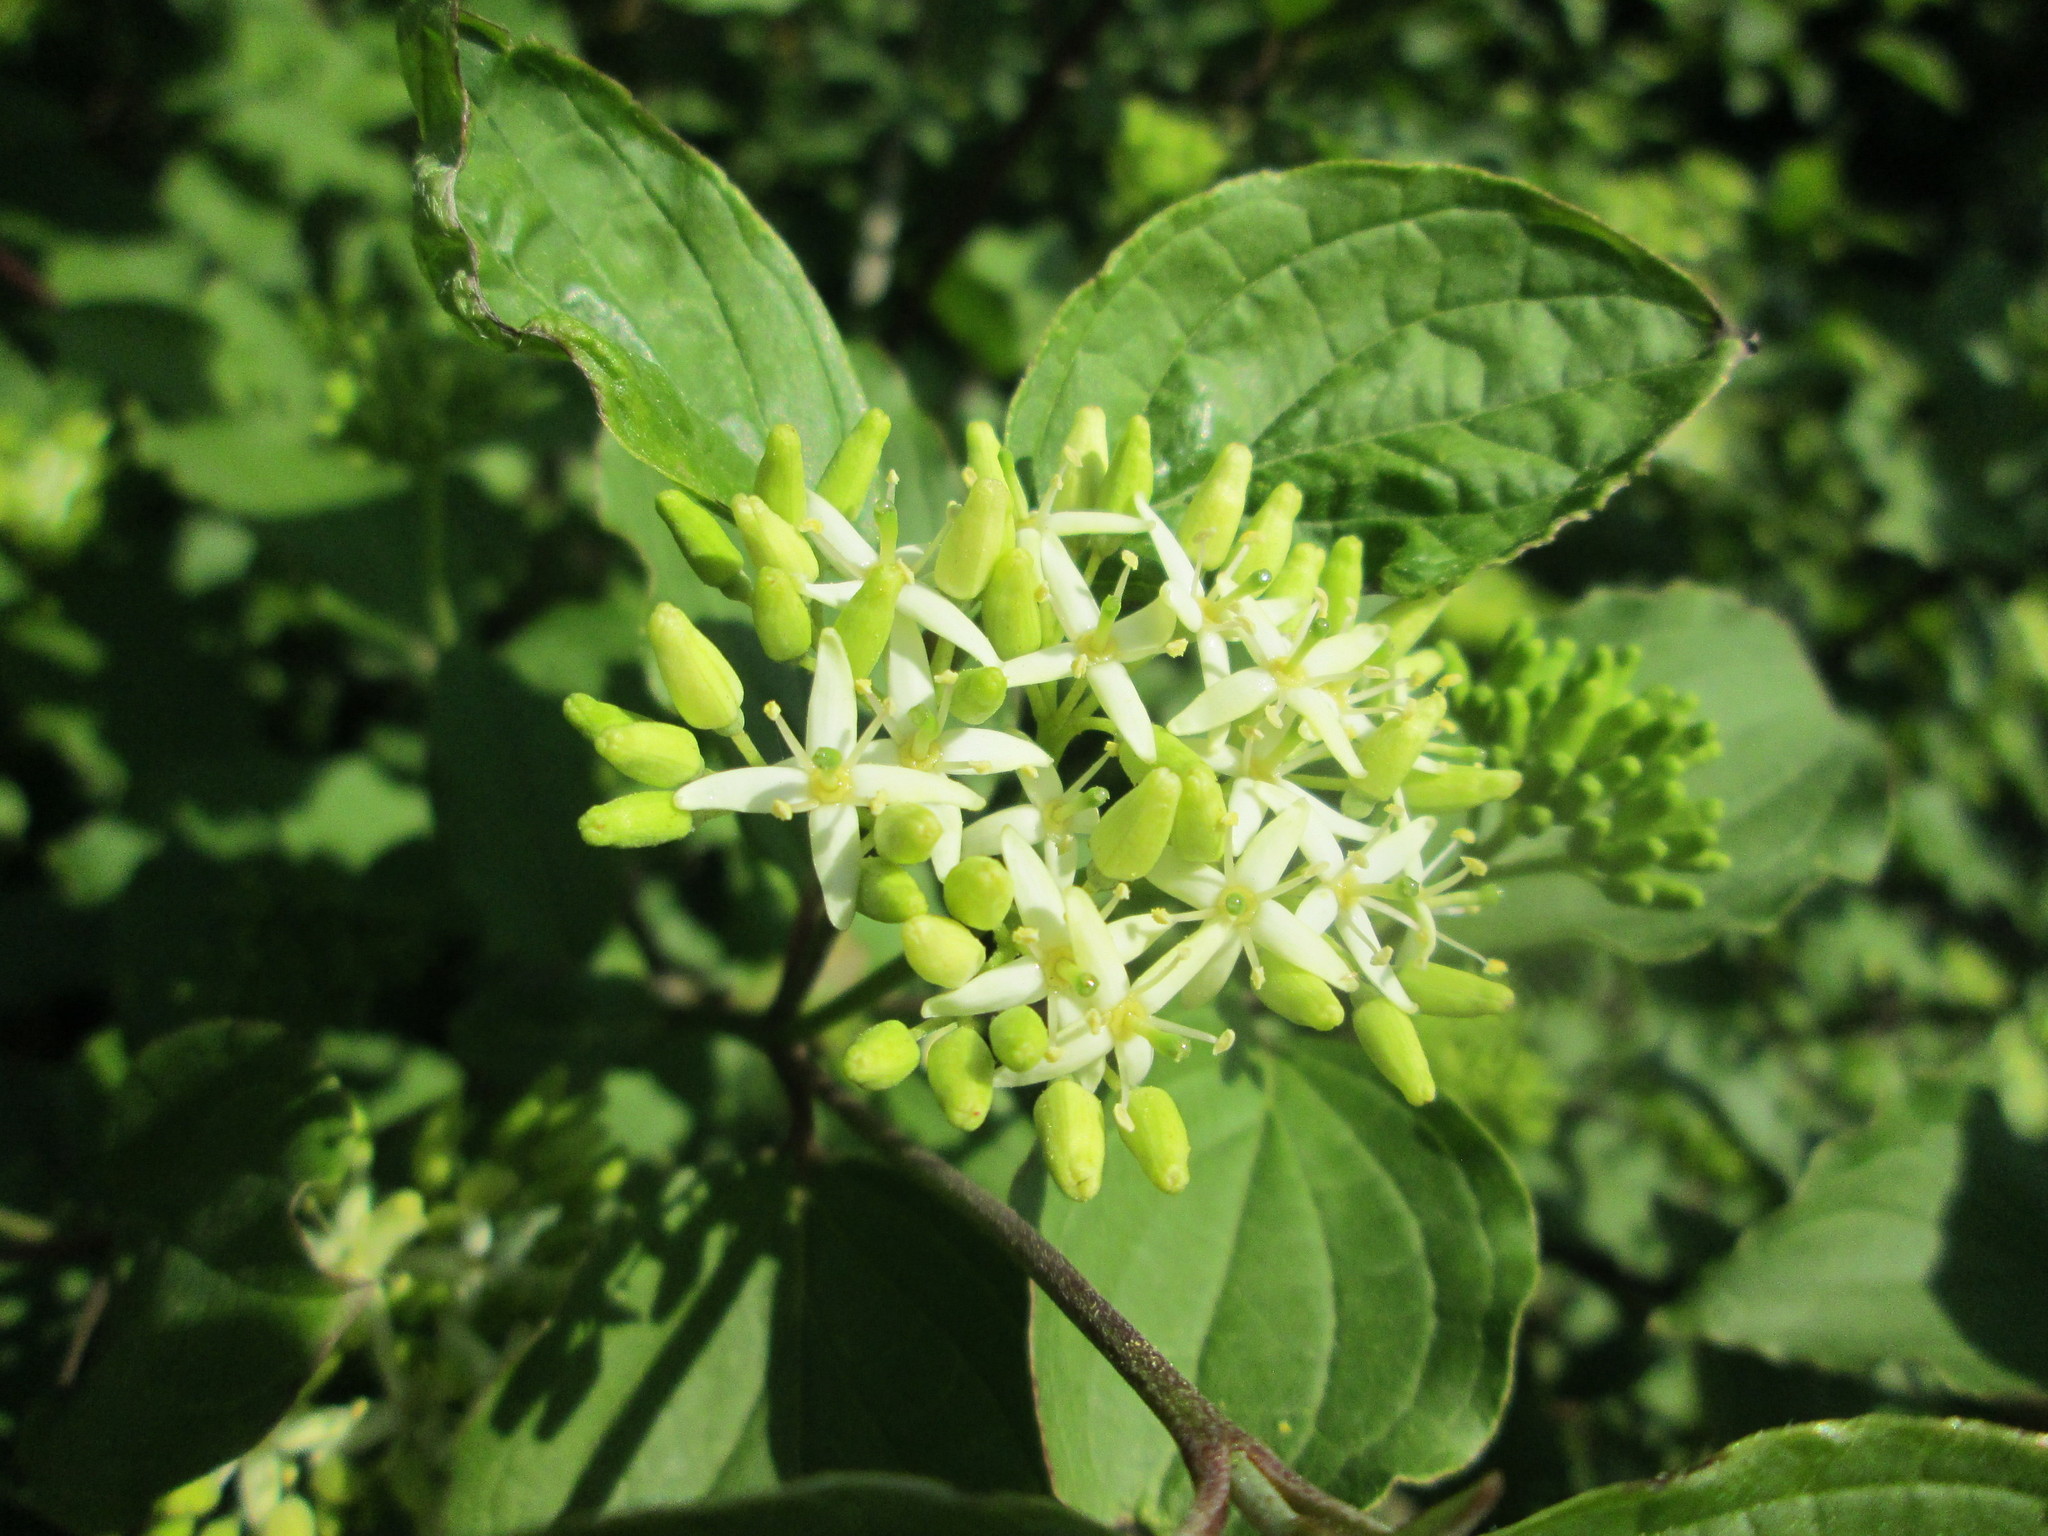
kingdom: Plantae
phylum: Tracheophyta
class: Magnoliopsida
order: Cornales
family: Cornaceae
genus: Cornus
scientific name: Cornus sanguinea
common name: Dogwood
